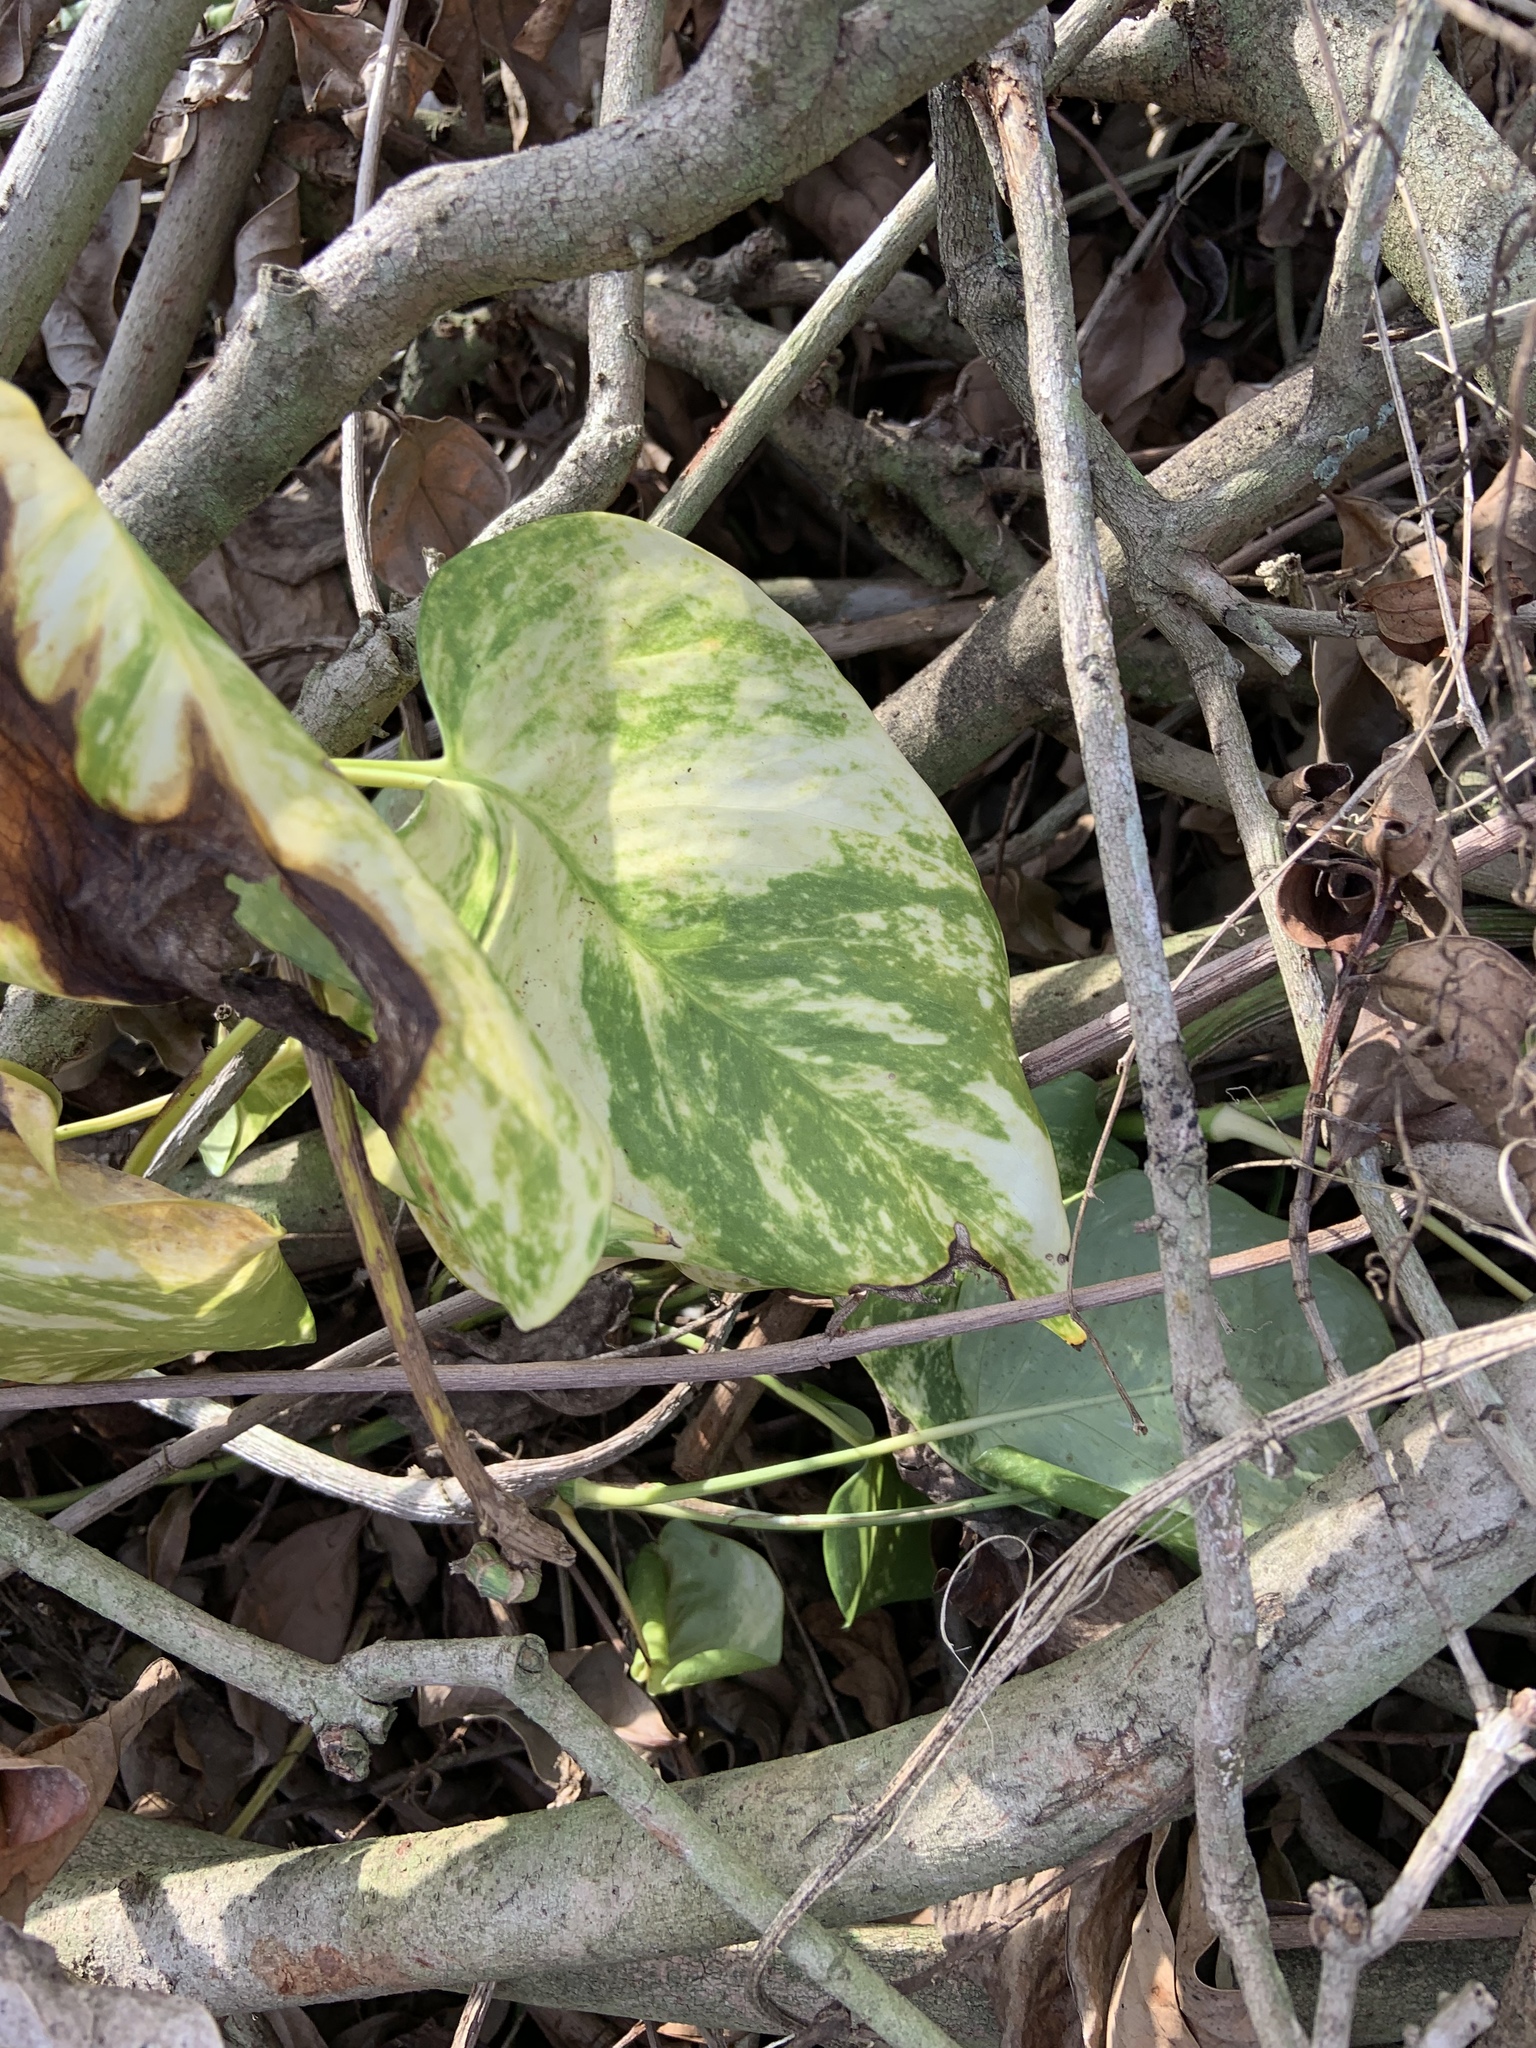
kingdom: Plantae
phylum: Tracheophyta
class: Liliopsida
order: Alismatales
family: Araceae
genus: Epipremnum
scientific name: Epipremnum aureum
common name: Golden hunter's-robe
